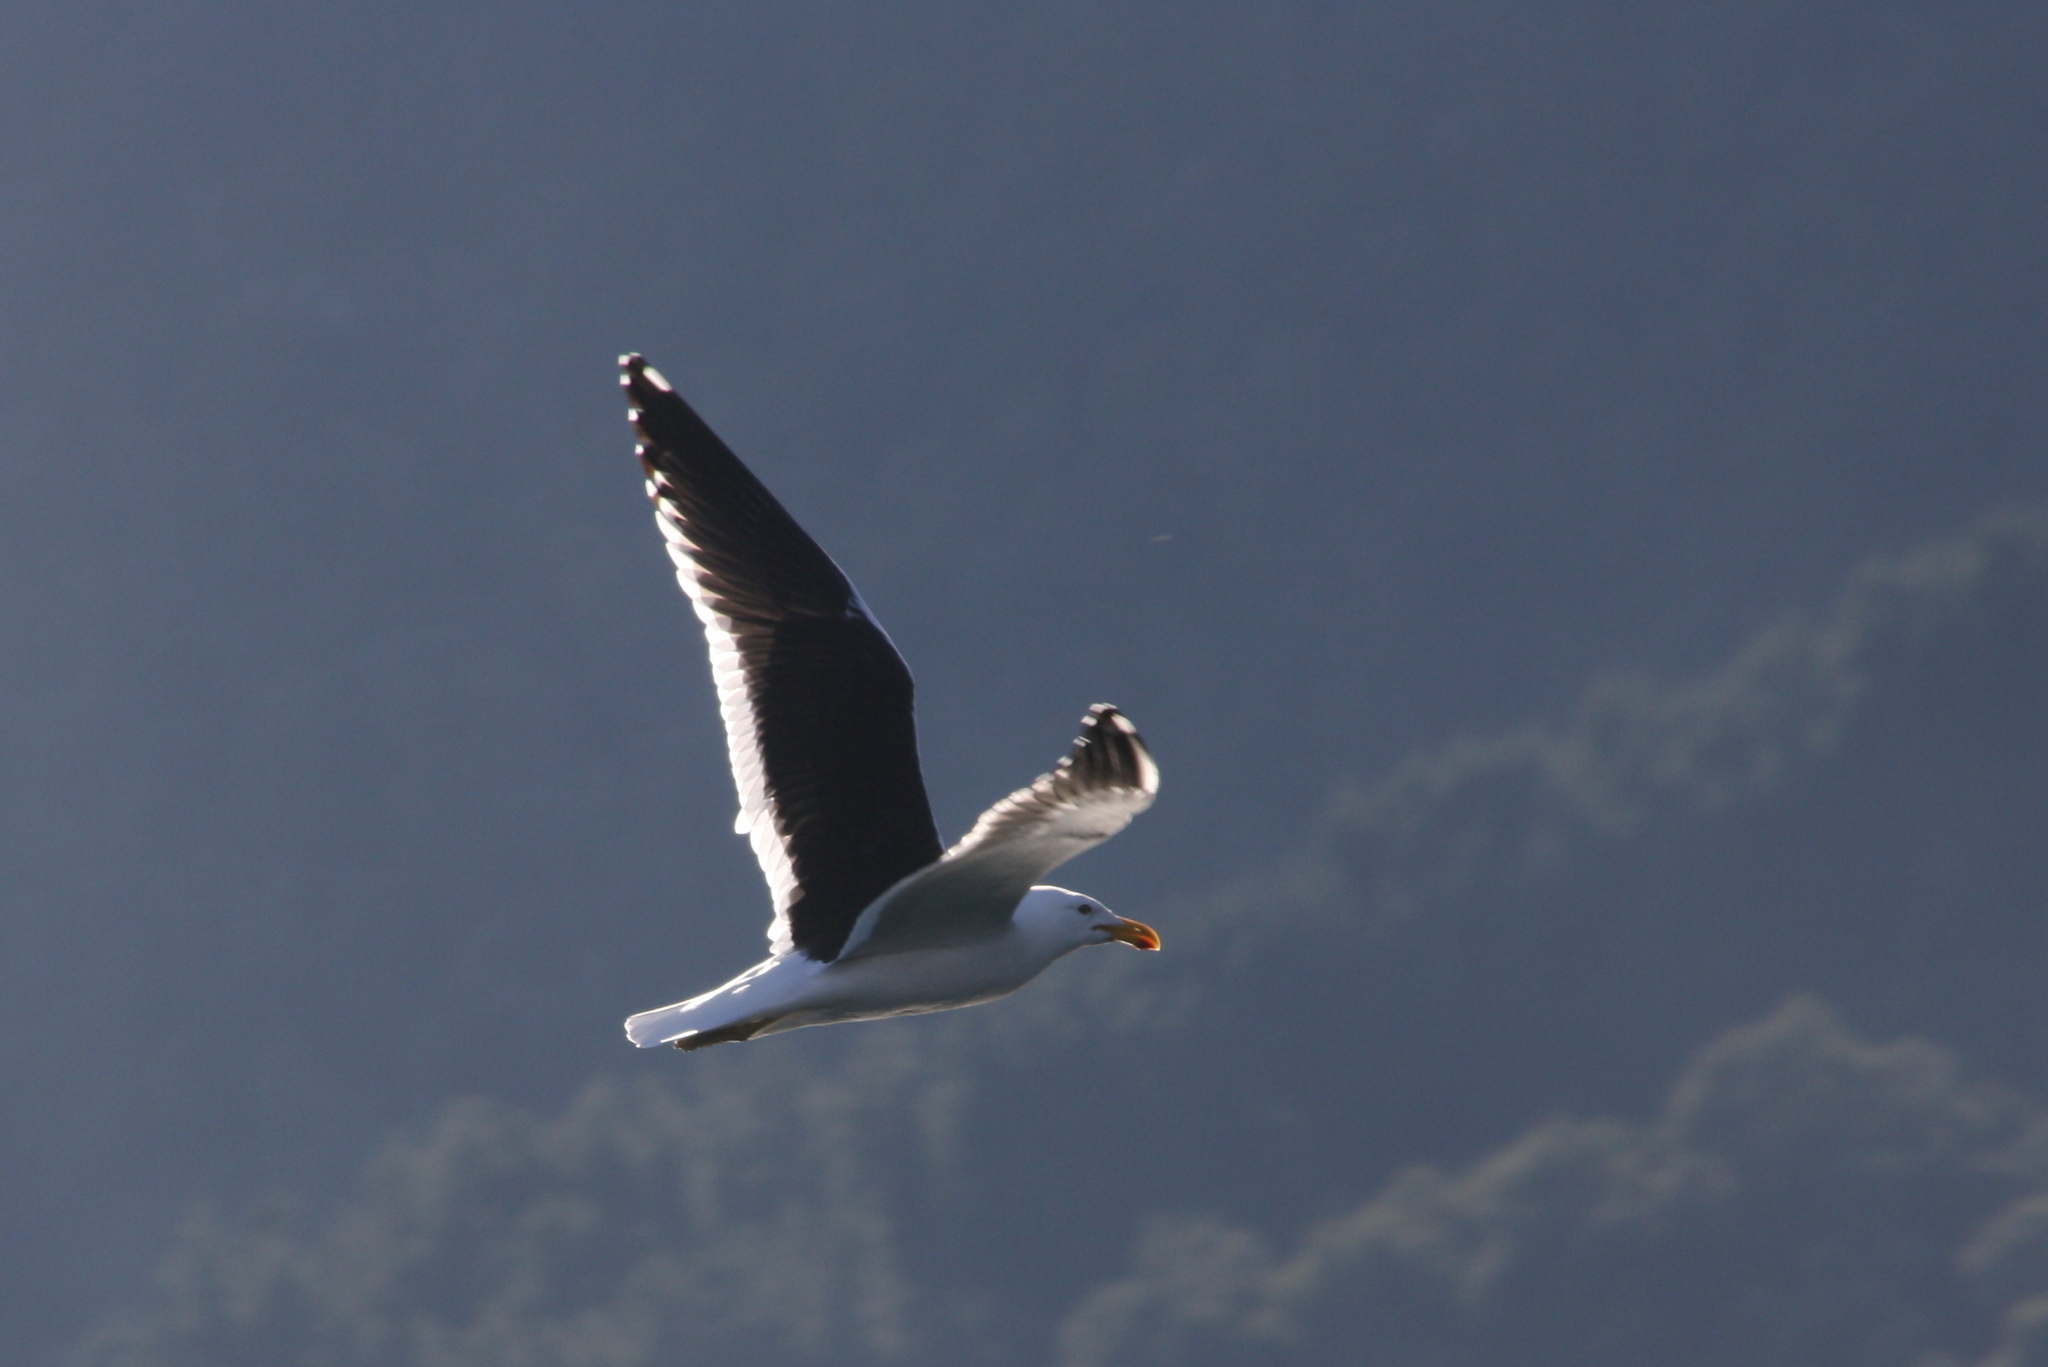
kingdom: Animalia
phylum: Chordata
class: Aves
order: Charadriiformes
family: Laridae
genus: Larus
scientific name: Larus dominicanus
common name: Kelp gull
